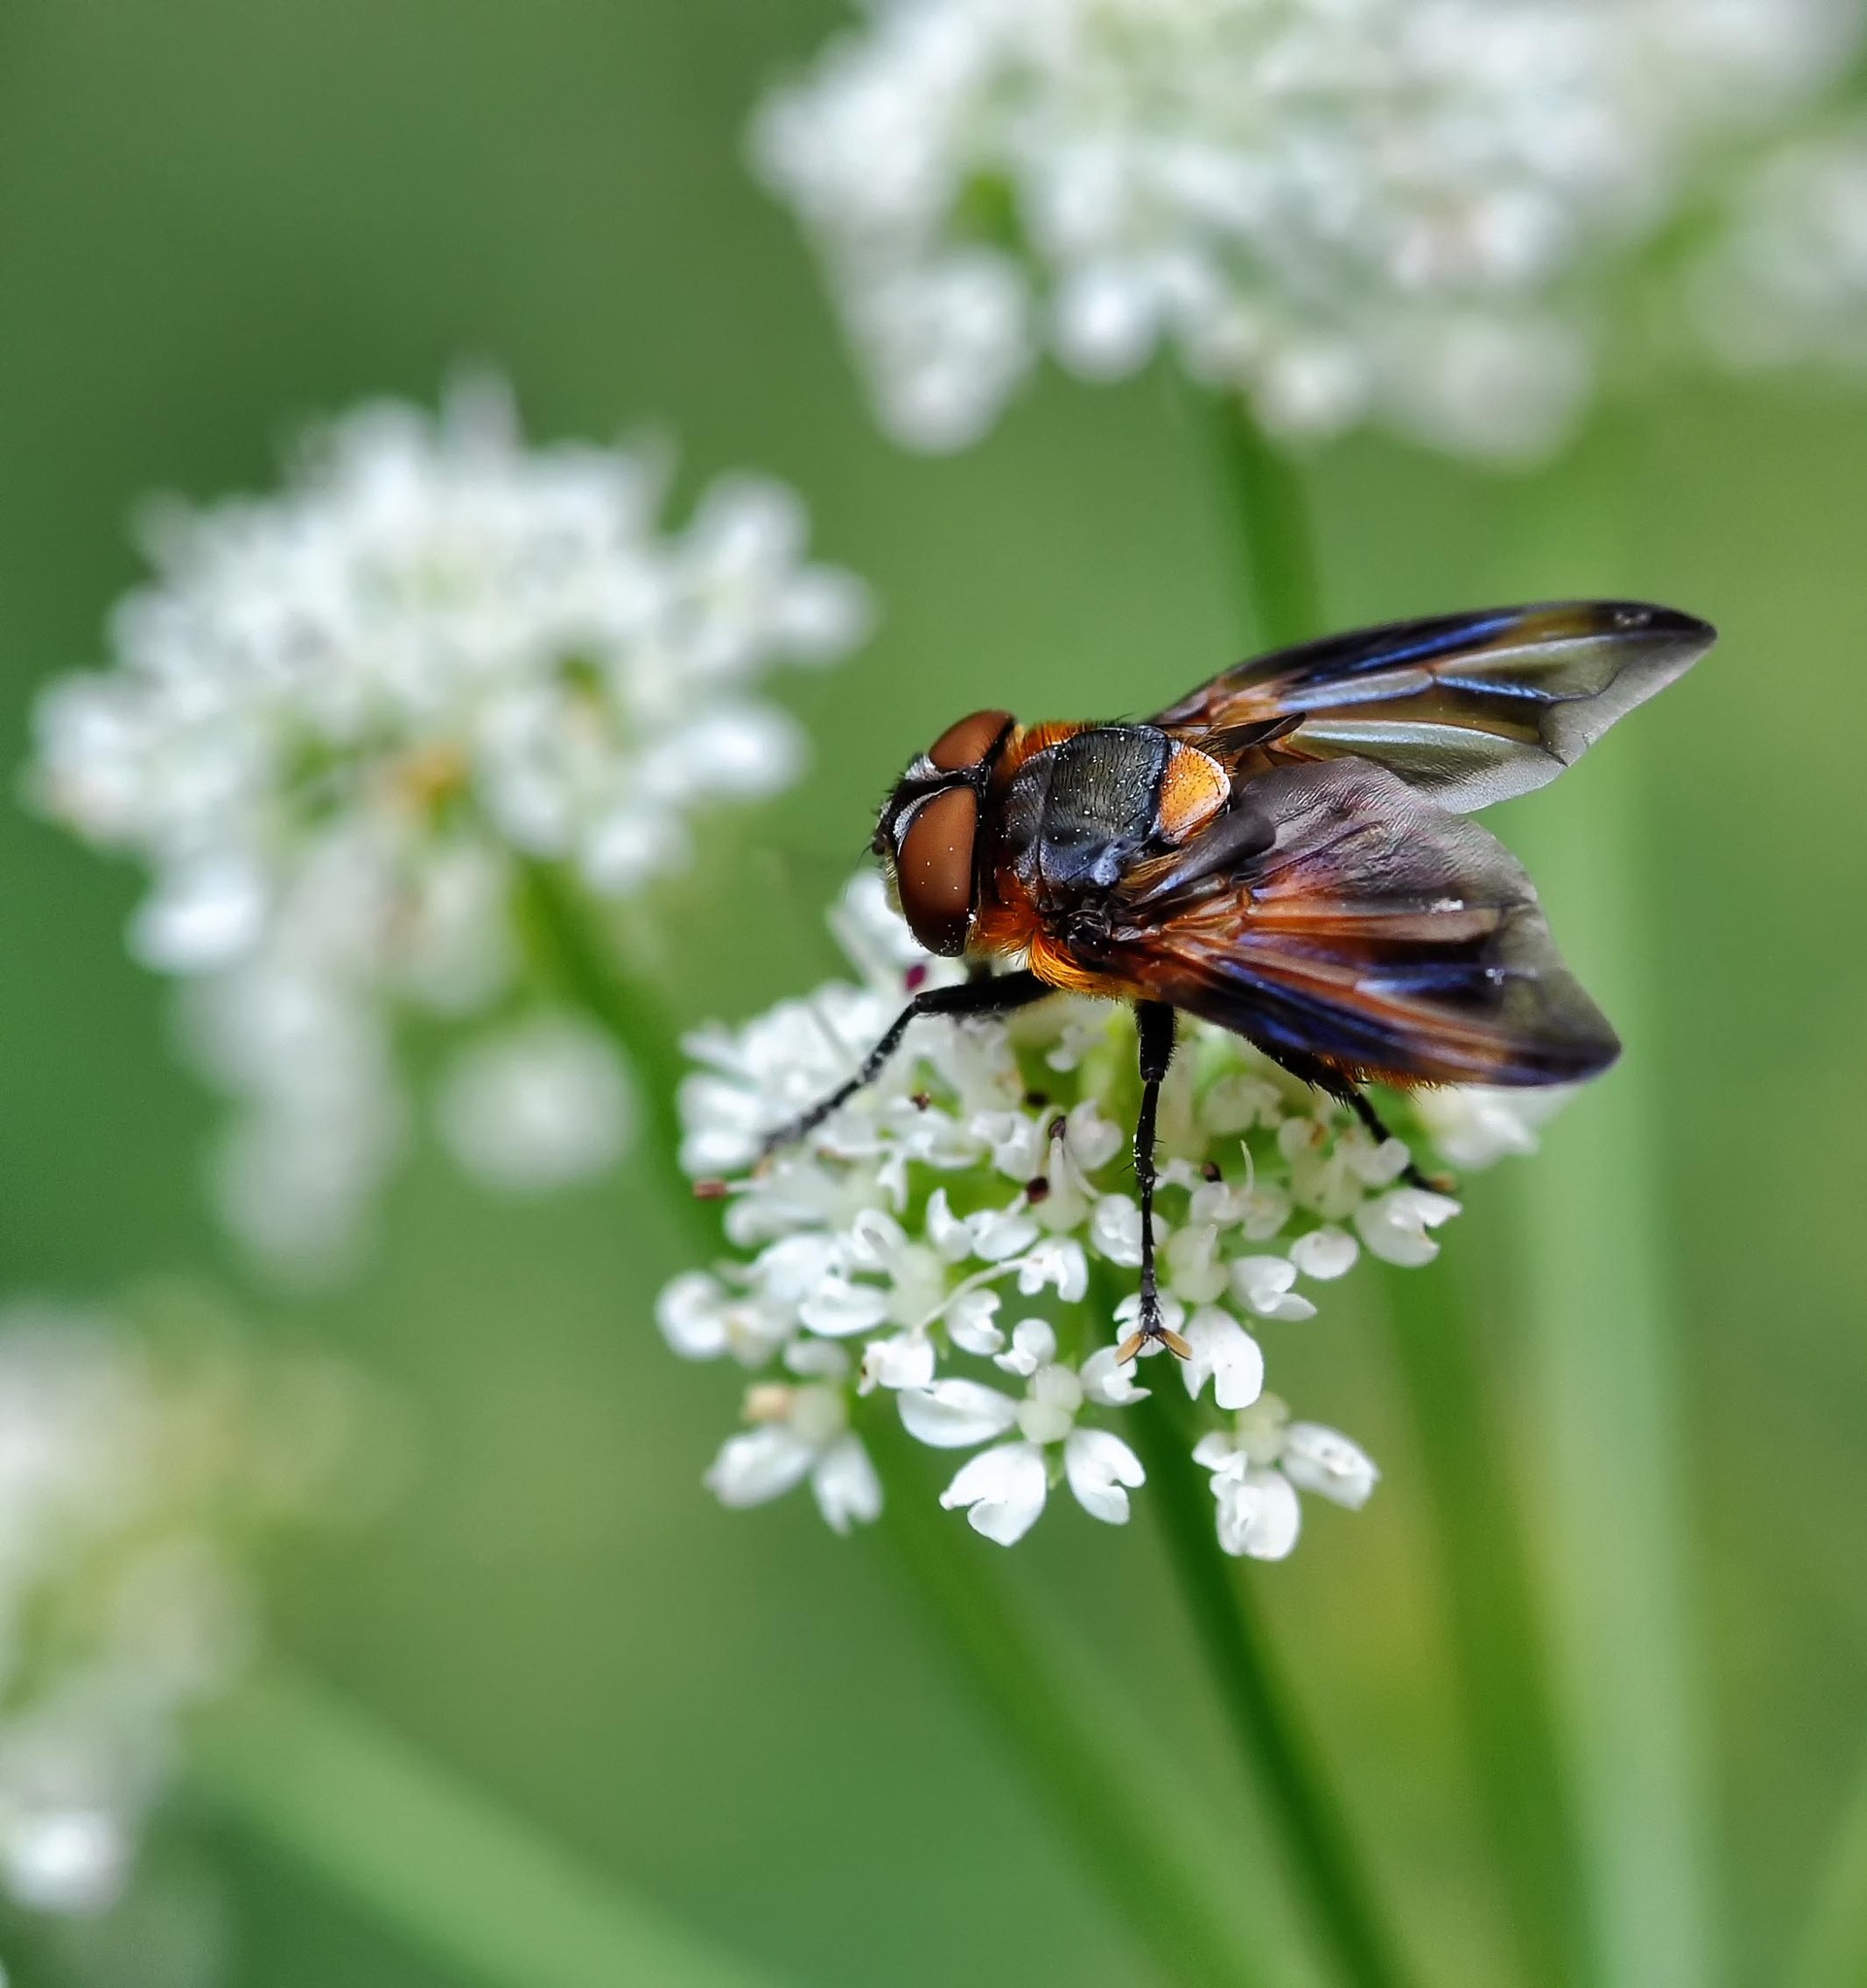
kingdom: Animalia
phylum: Arthropoda
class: Insecta
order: Diptera
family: Tachinidae
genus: Phasia
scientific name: Phasia hemiptera
